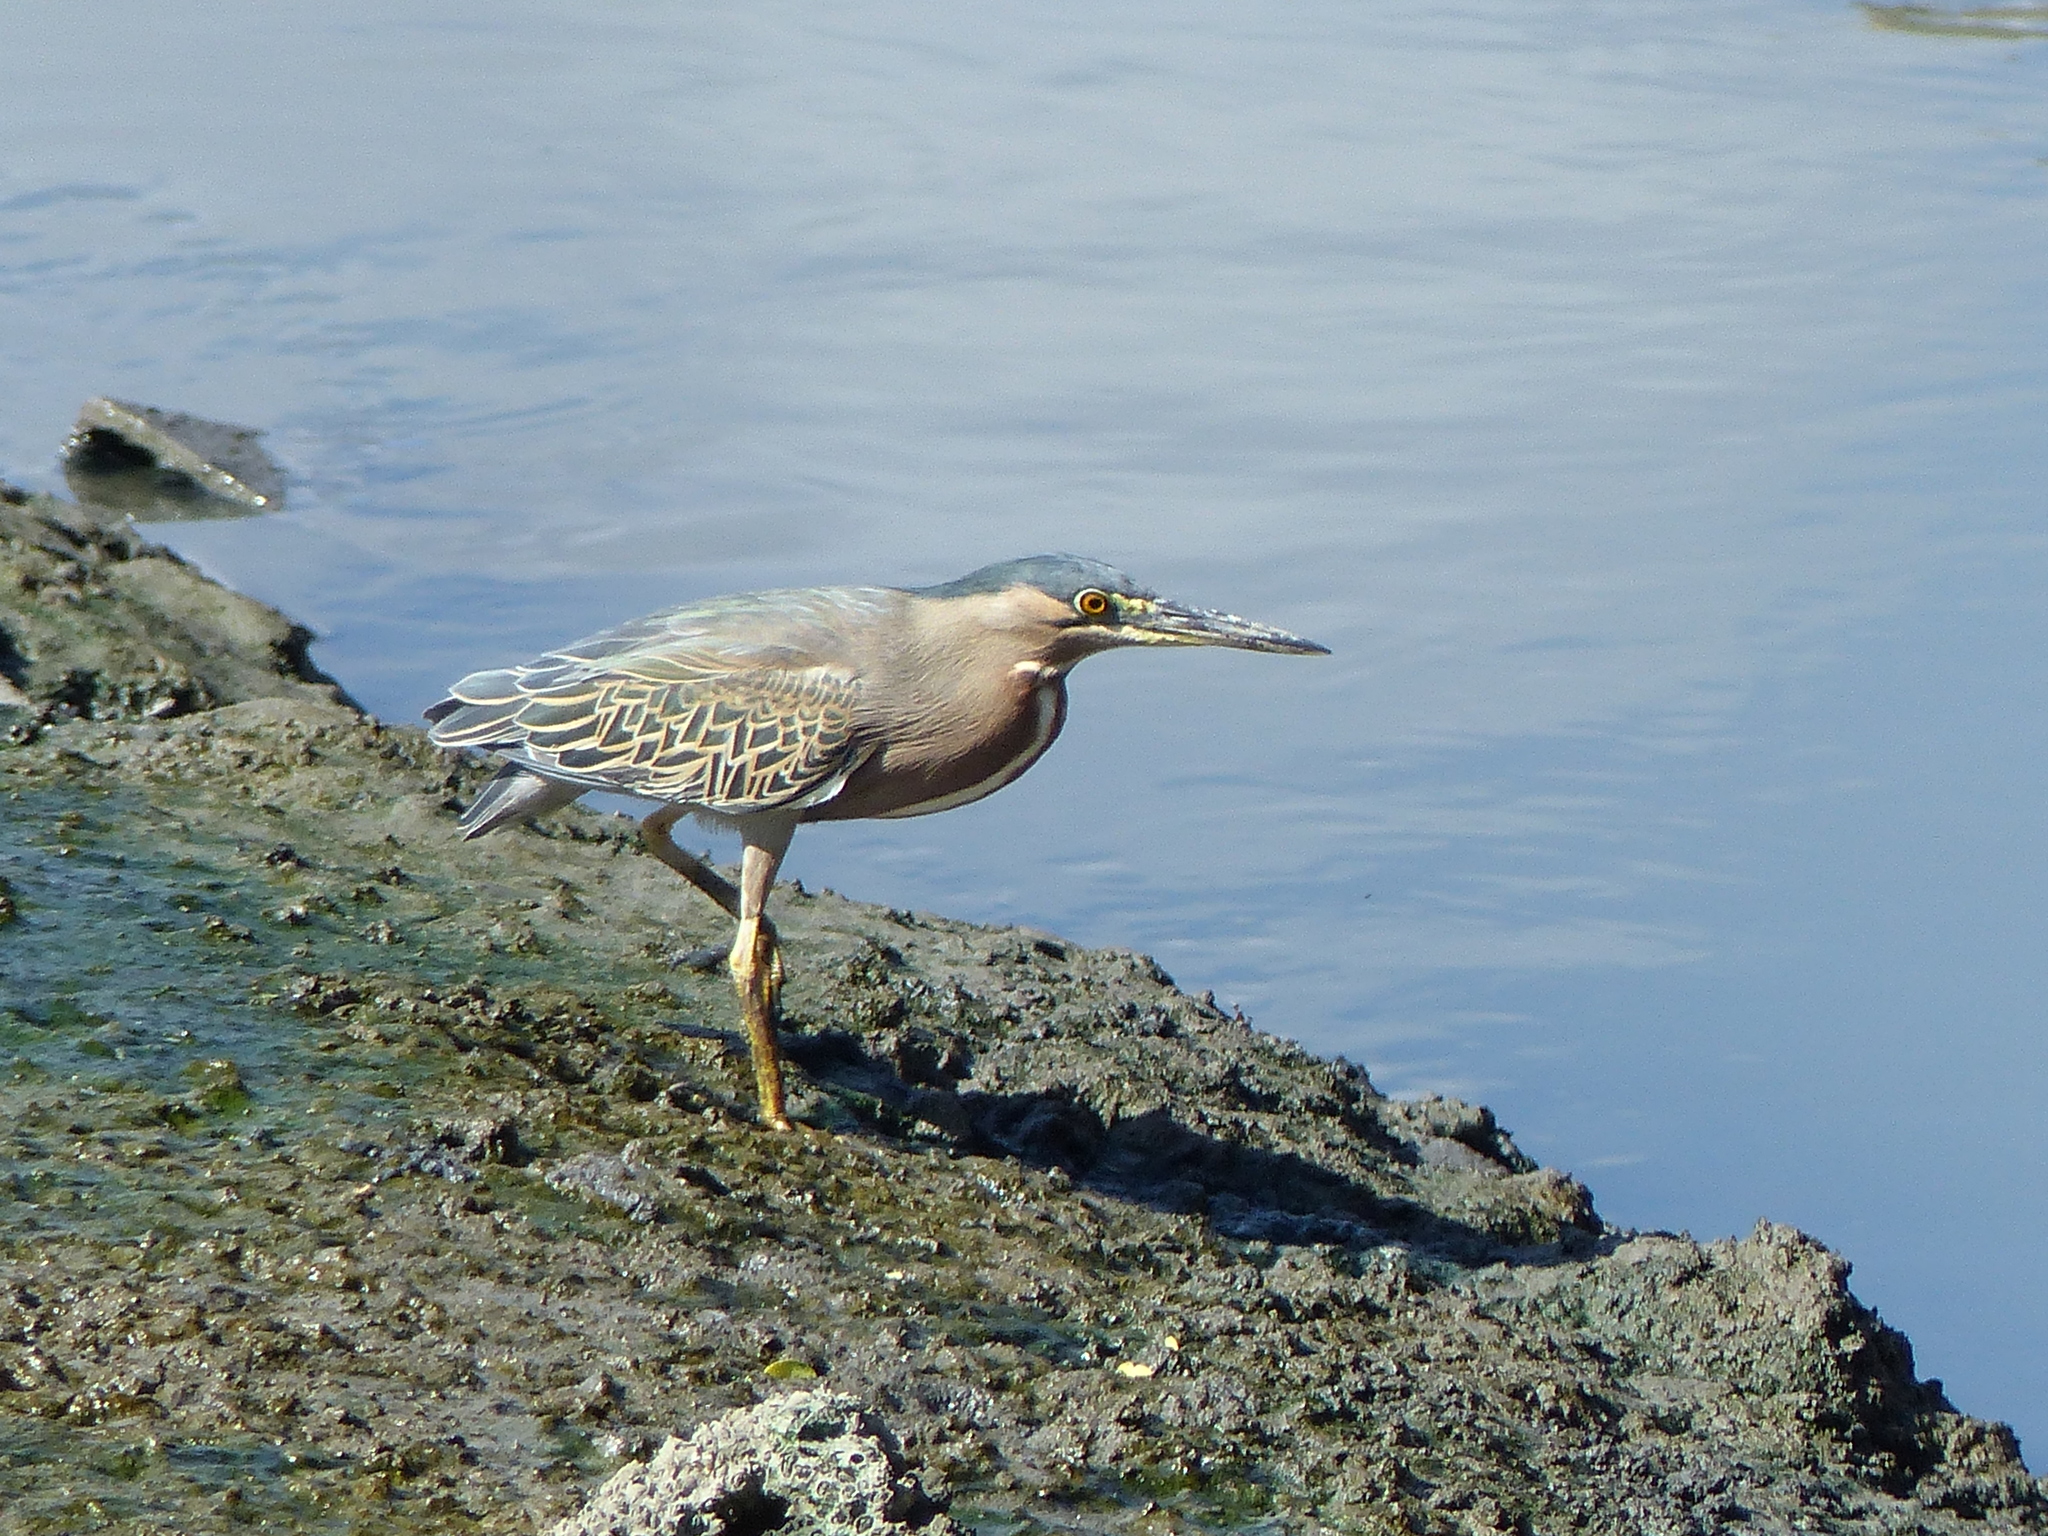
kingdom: Animalia
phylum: Chordata
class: Aves
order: Pelecaniformes
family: Ardeidae
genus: Butorides
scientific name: Butorides striata
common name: Striated heron
